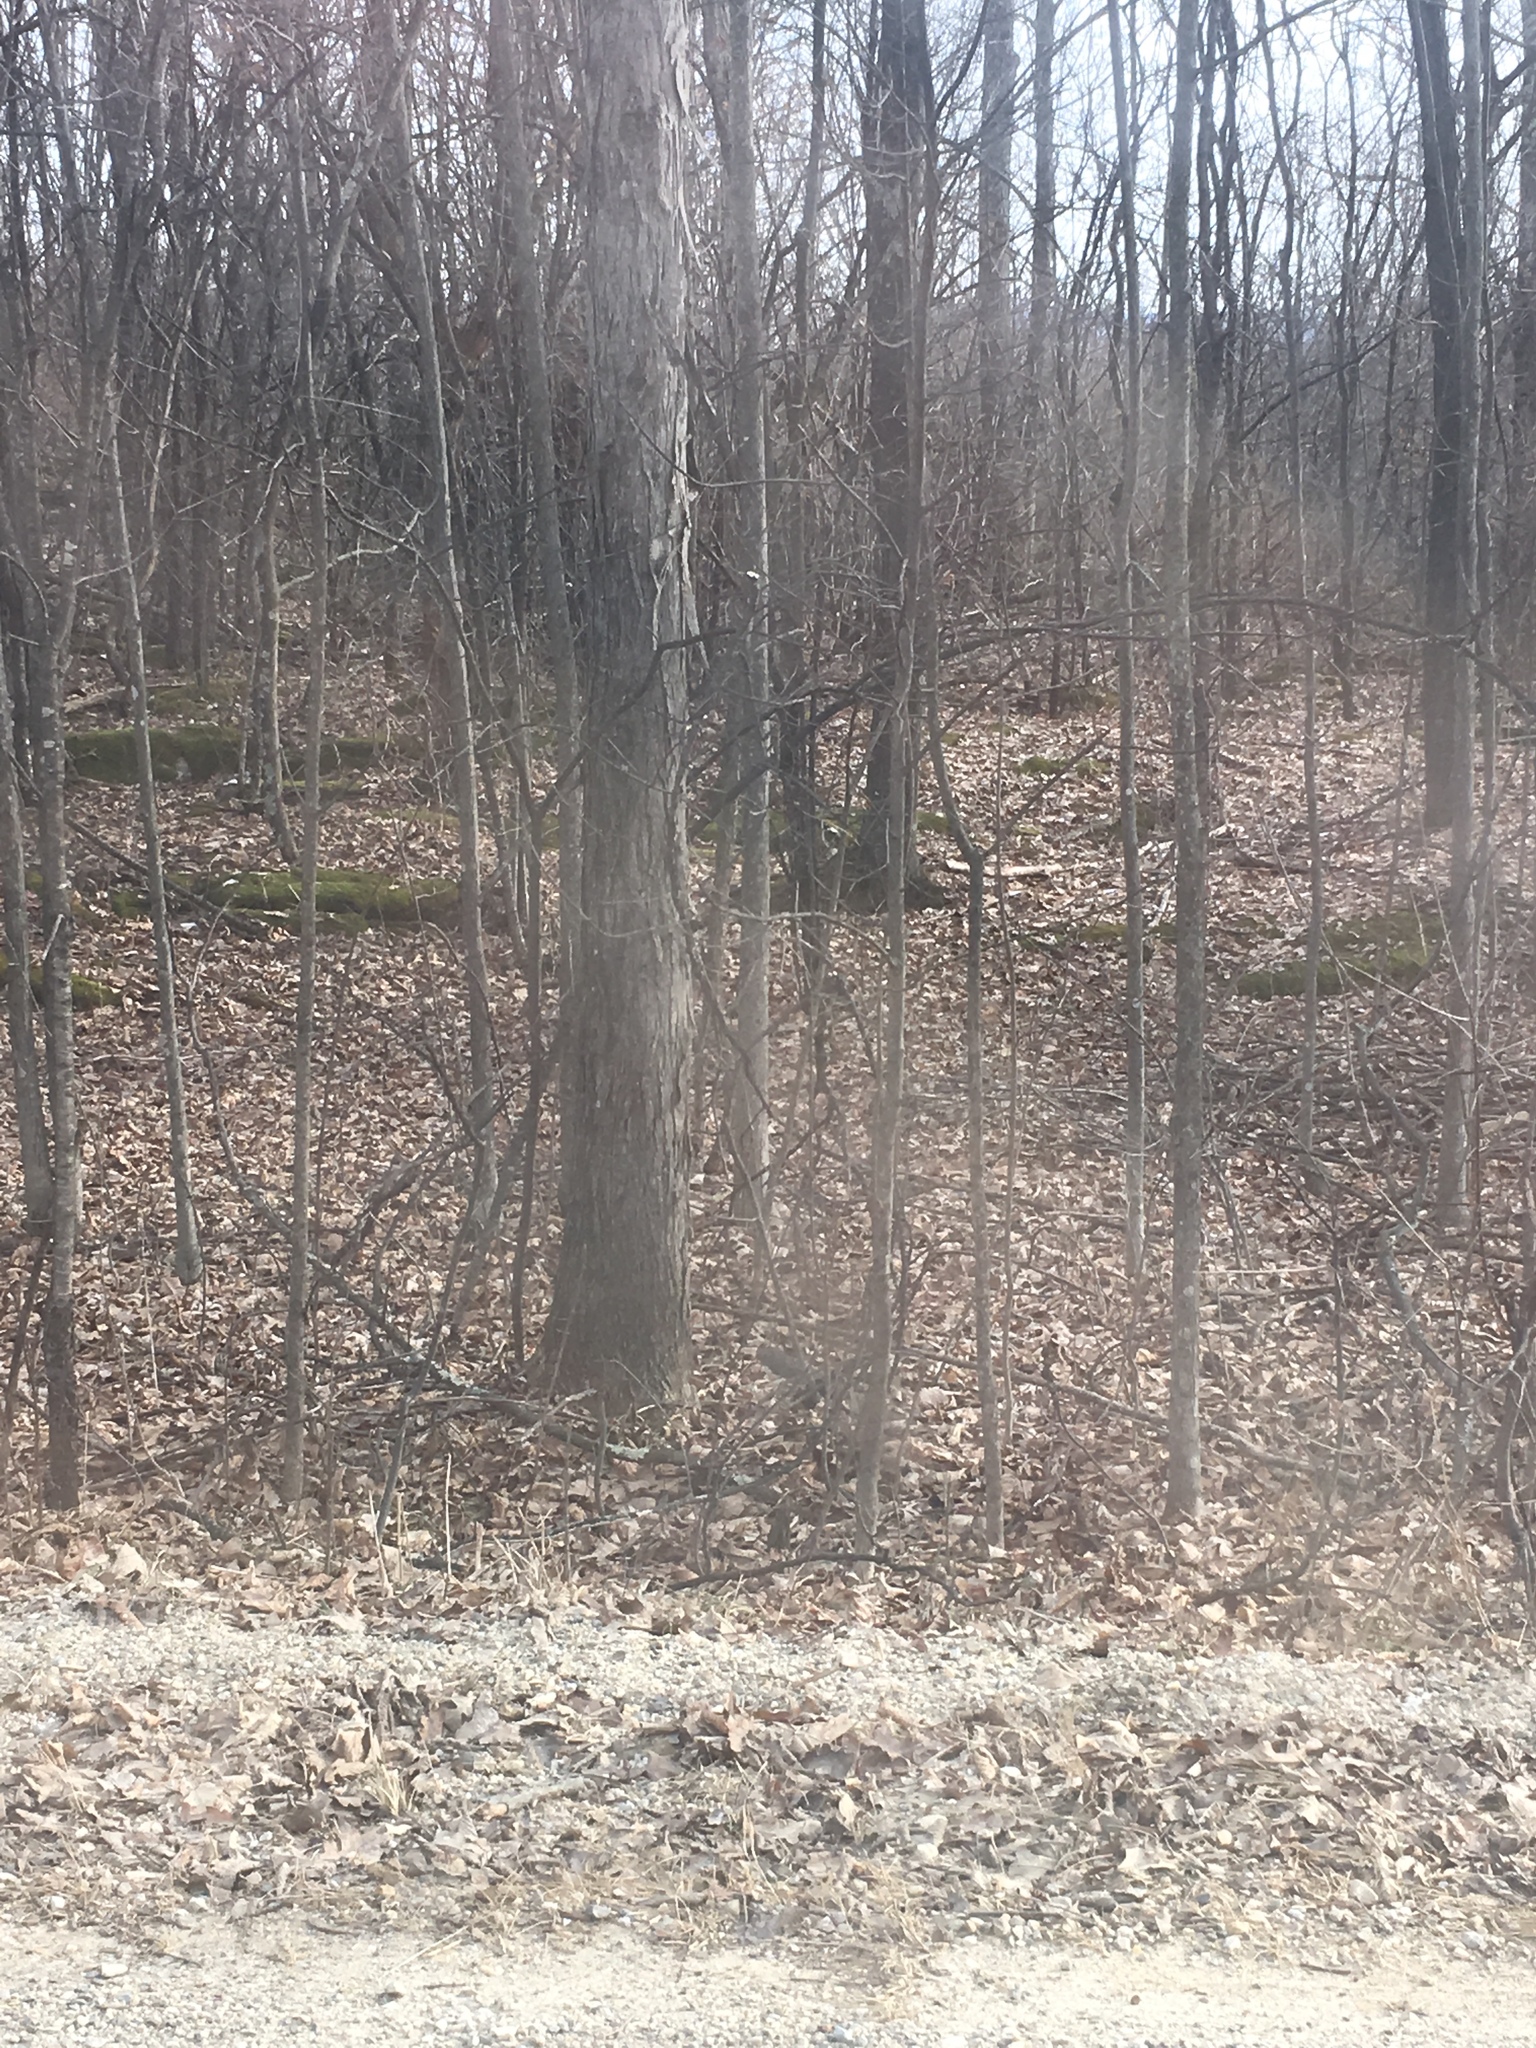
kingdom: Plantae
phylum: Tracheophyta
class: Magnoliopsida
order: Fagales
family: Juglandaceae
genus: Carya
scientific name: Carya ovata
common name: Shagbark hickory
